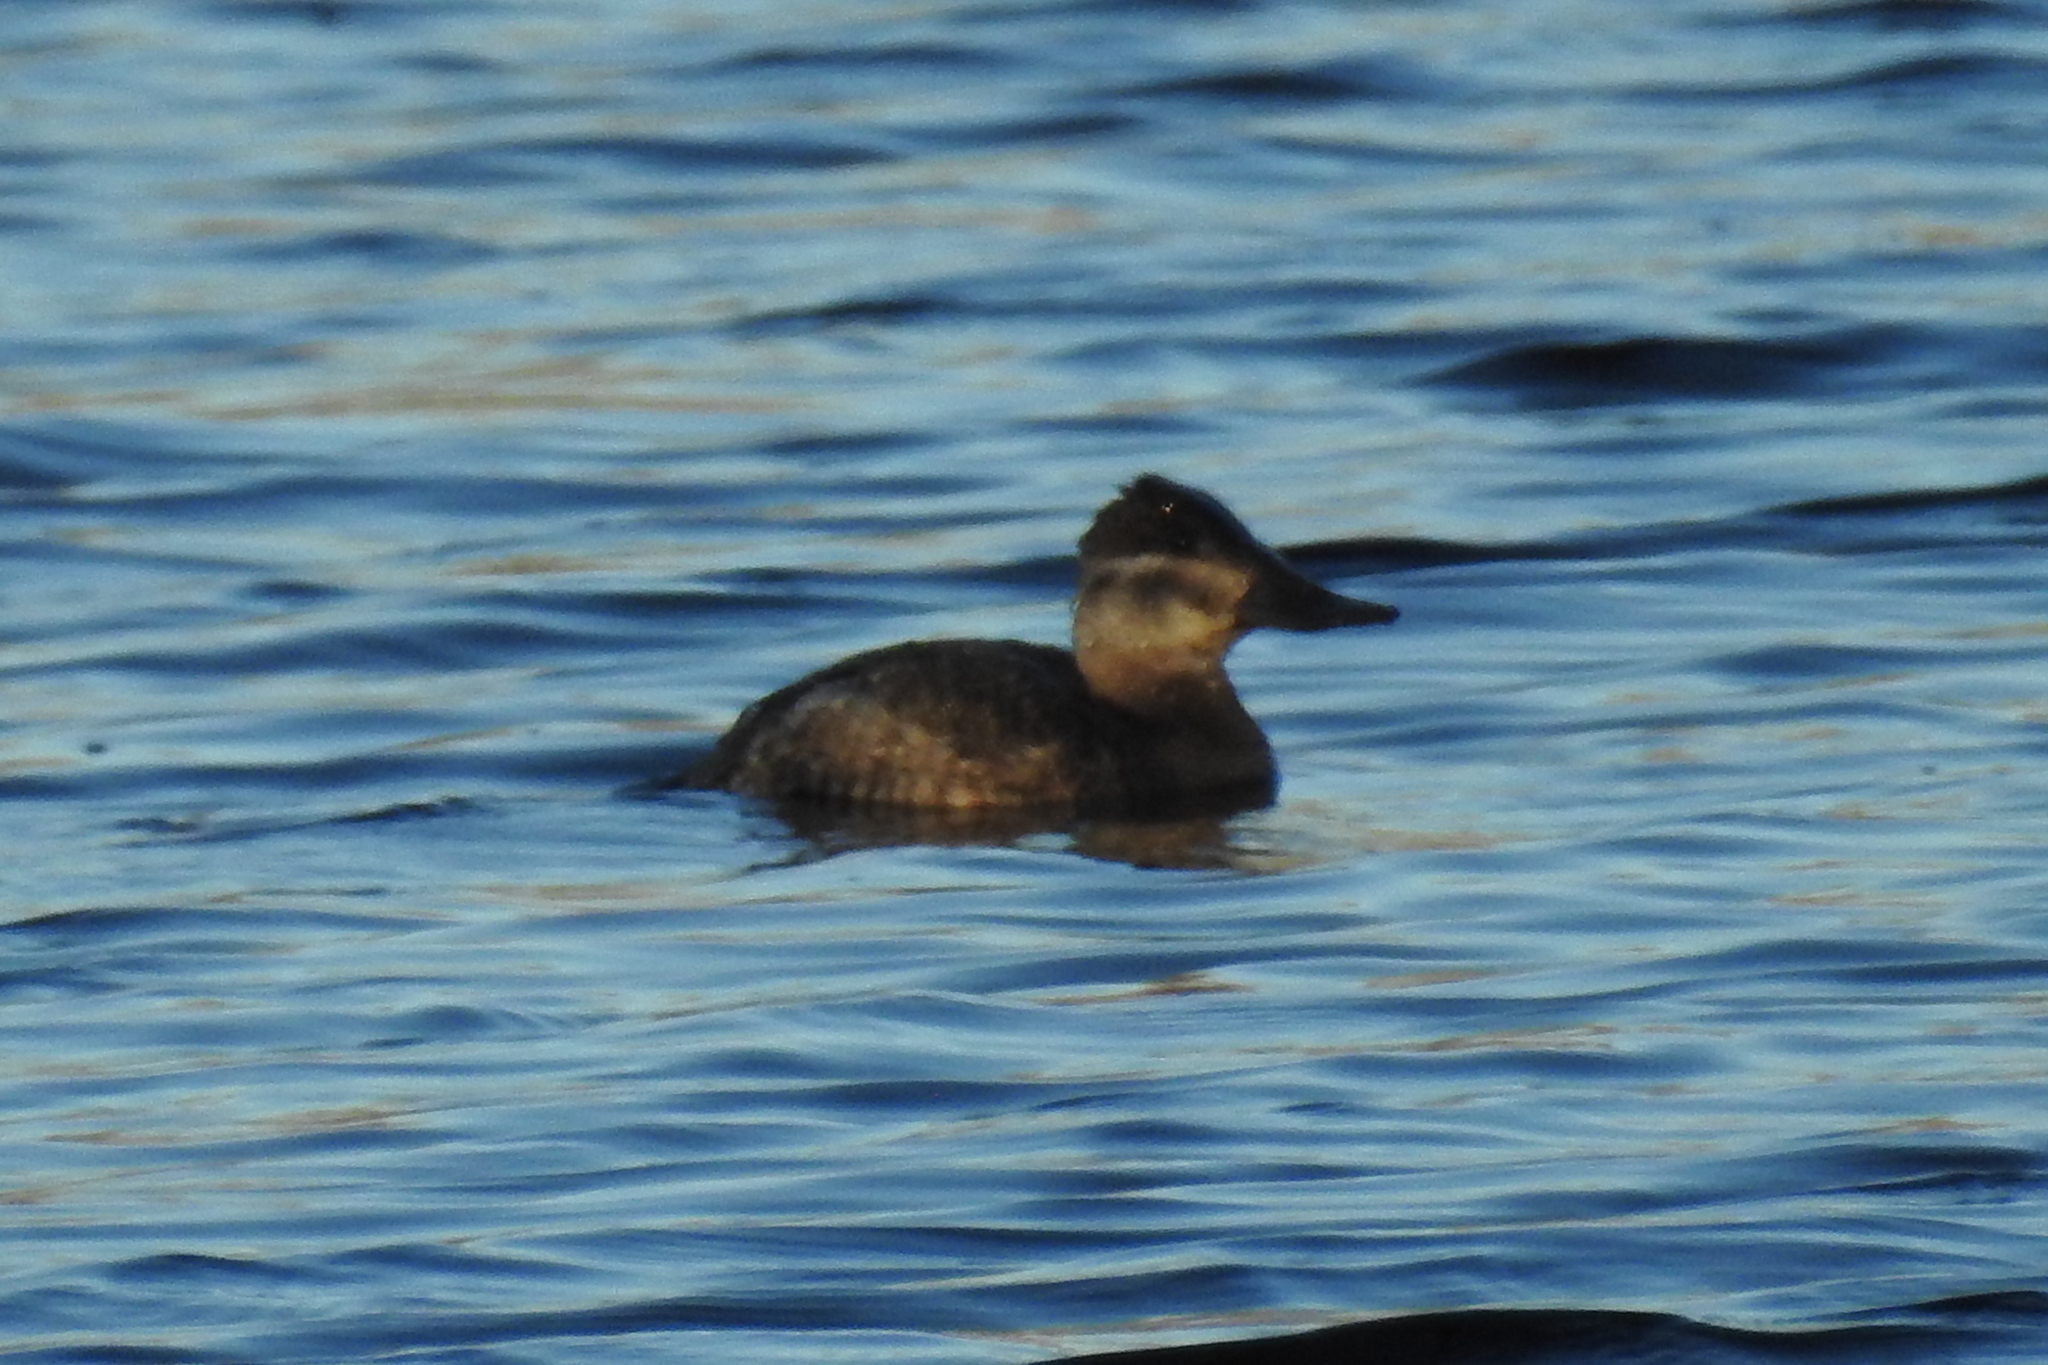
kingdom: Animalia
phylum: Chordata
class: Aves
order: Anseriformes
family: Anatidae
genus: Oxyura
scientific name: Oxyura jamaicensis
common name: Ruddy duck
